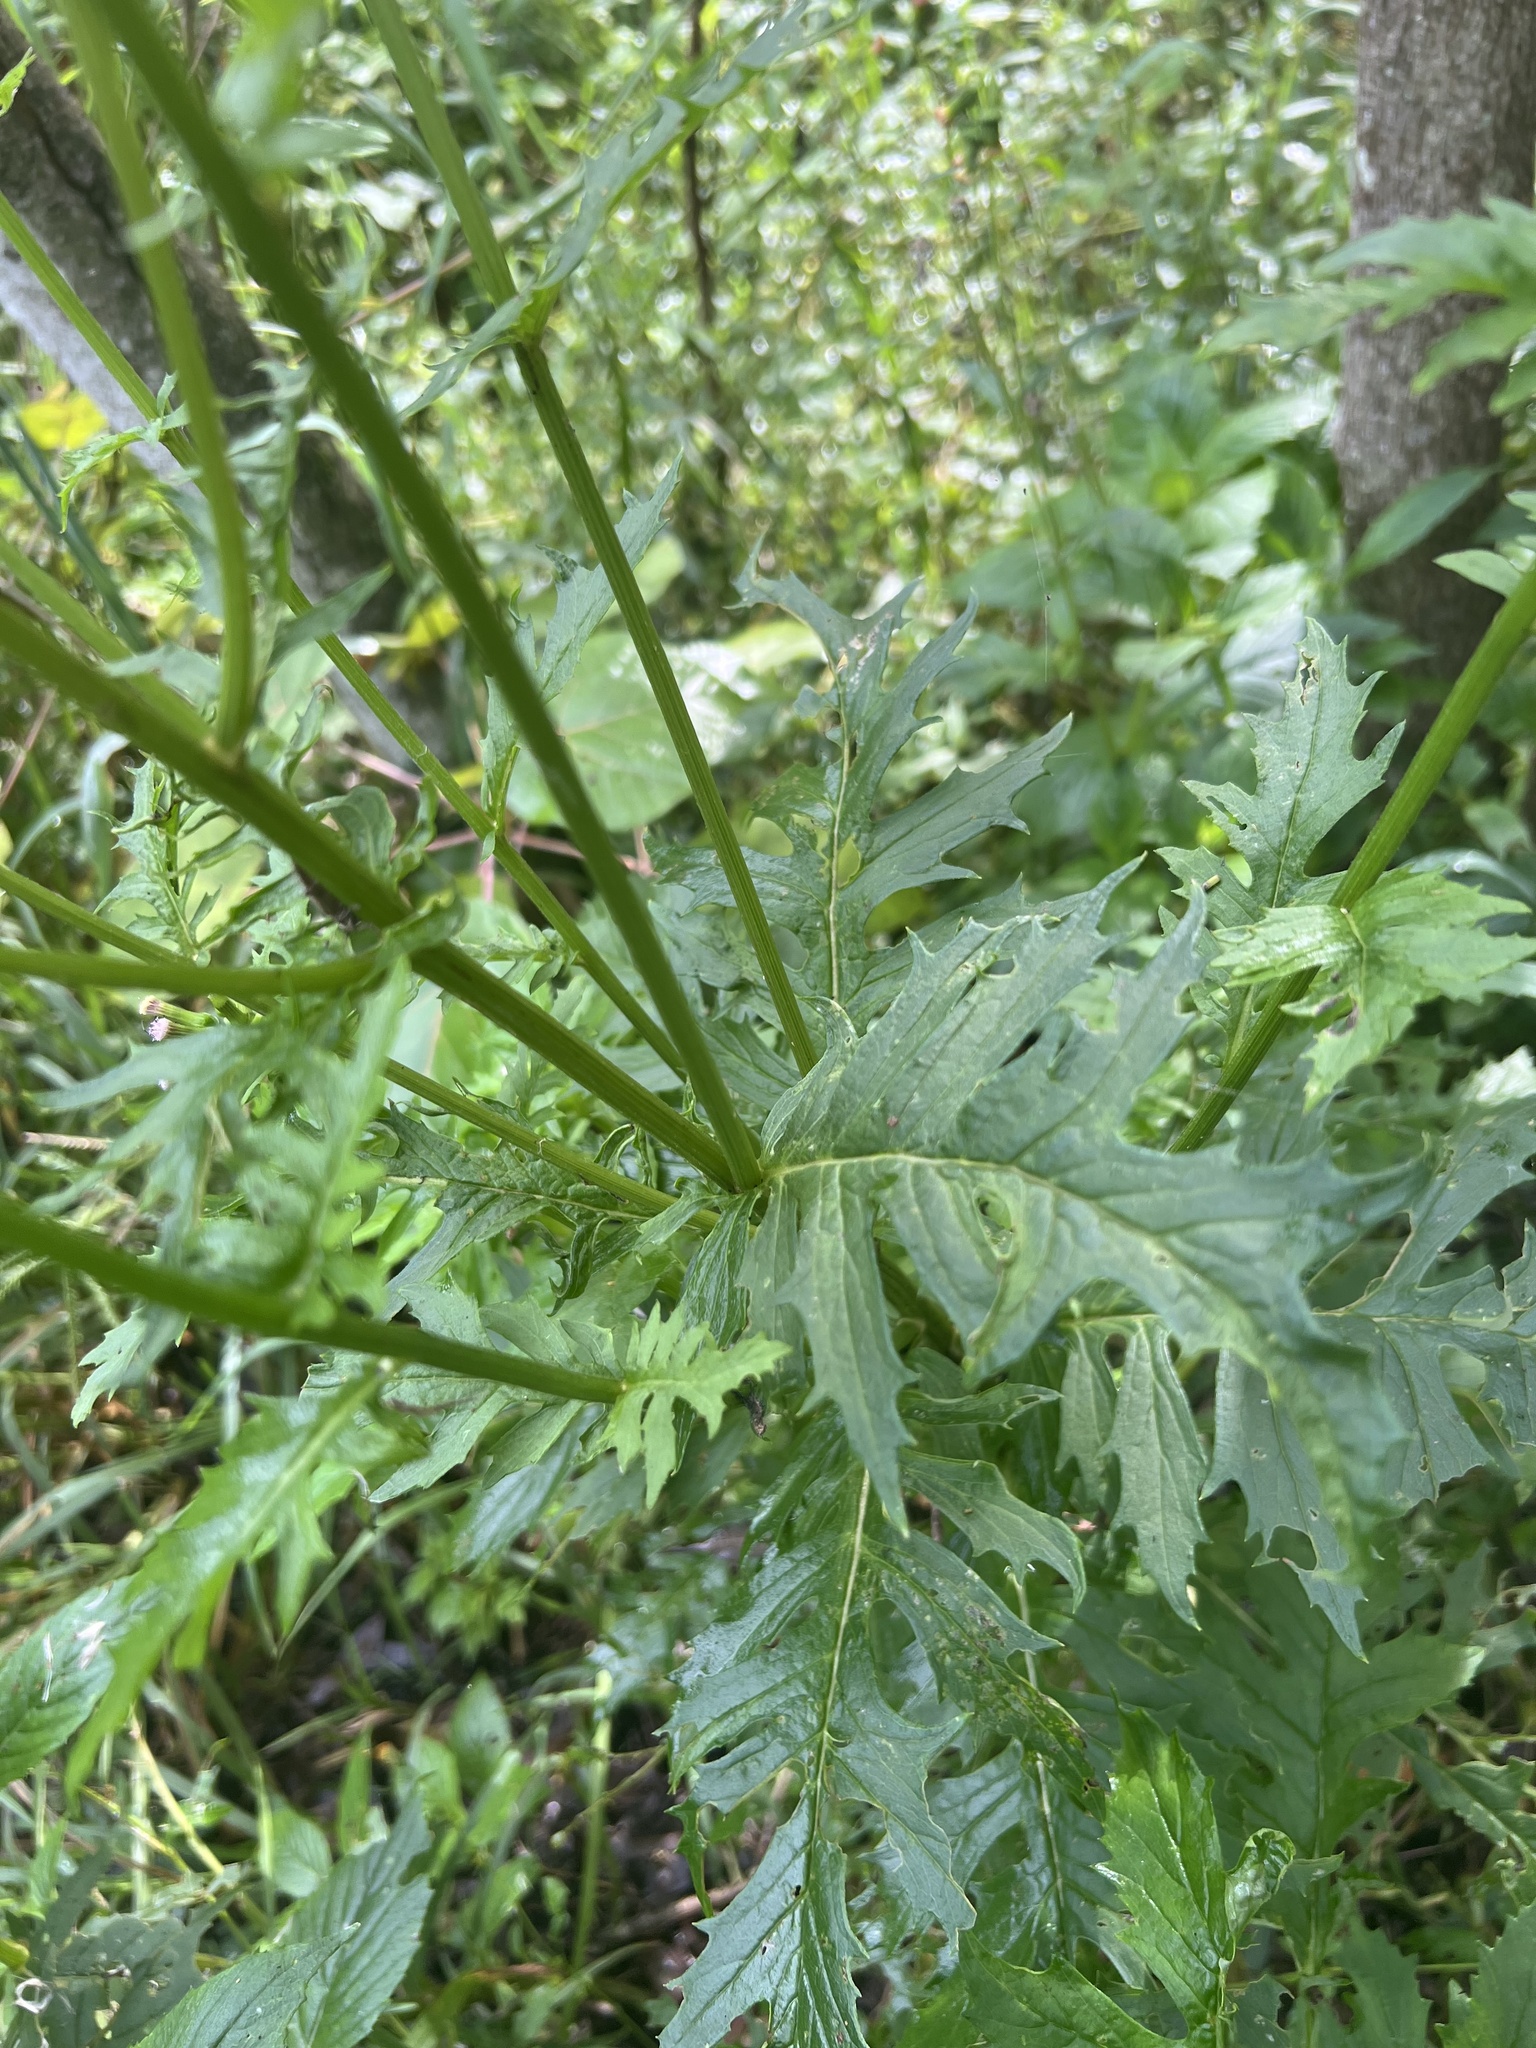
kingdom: Plantae
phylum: Tracheophyta
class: Magnoliopsida
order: Asterales
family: Asteraceae
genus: Erechtites
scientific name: Erechtites valerianifolius
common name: Tropical burnweed
